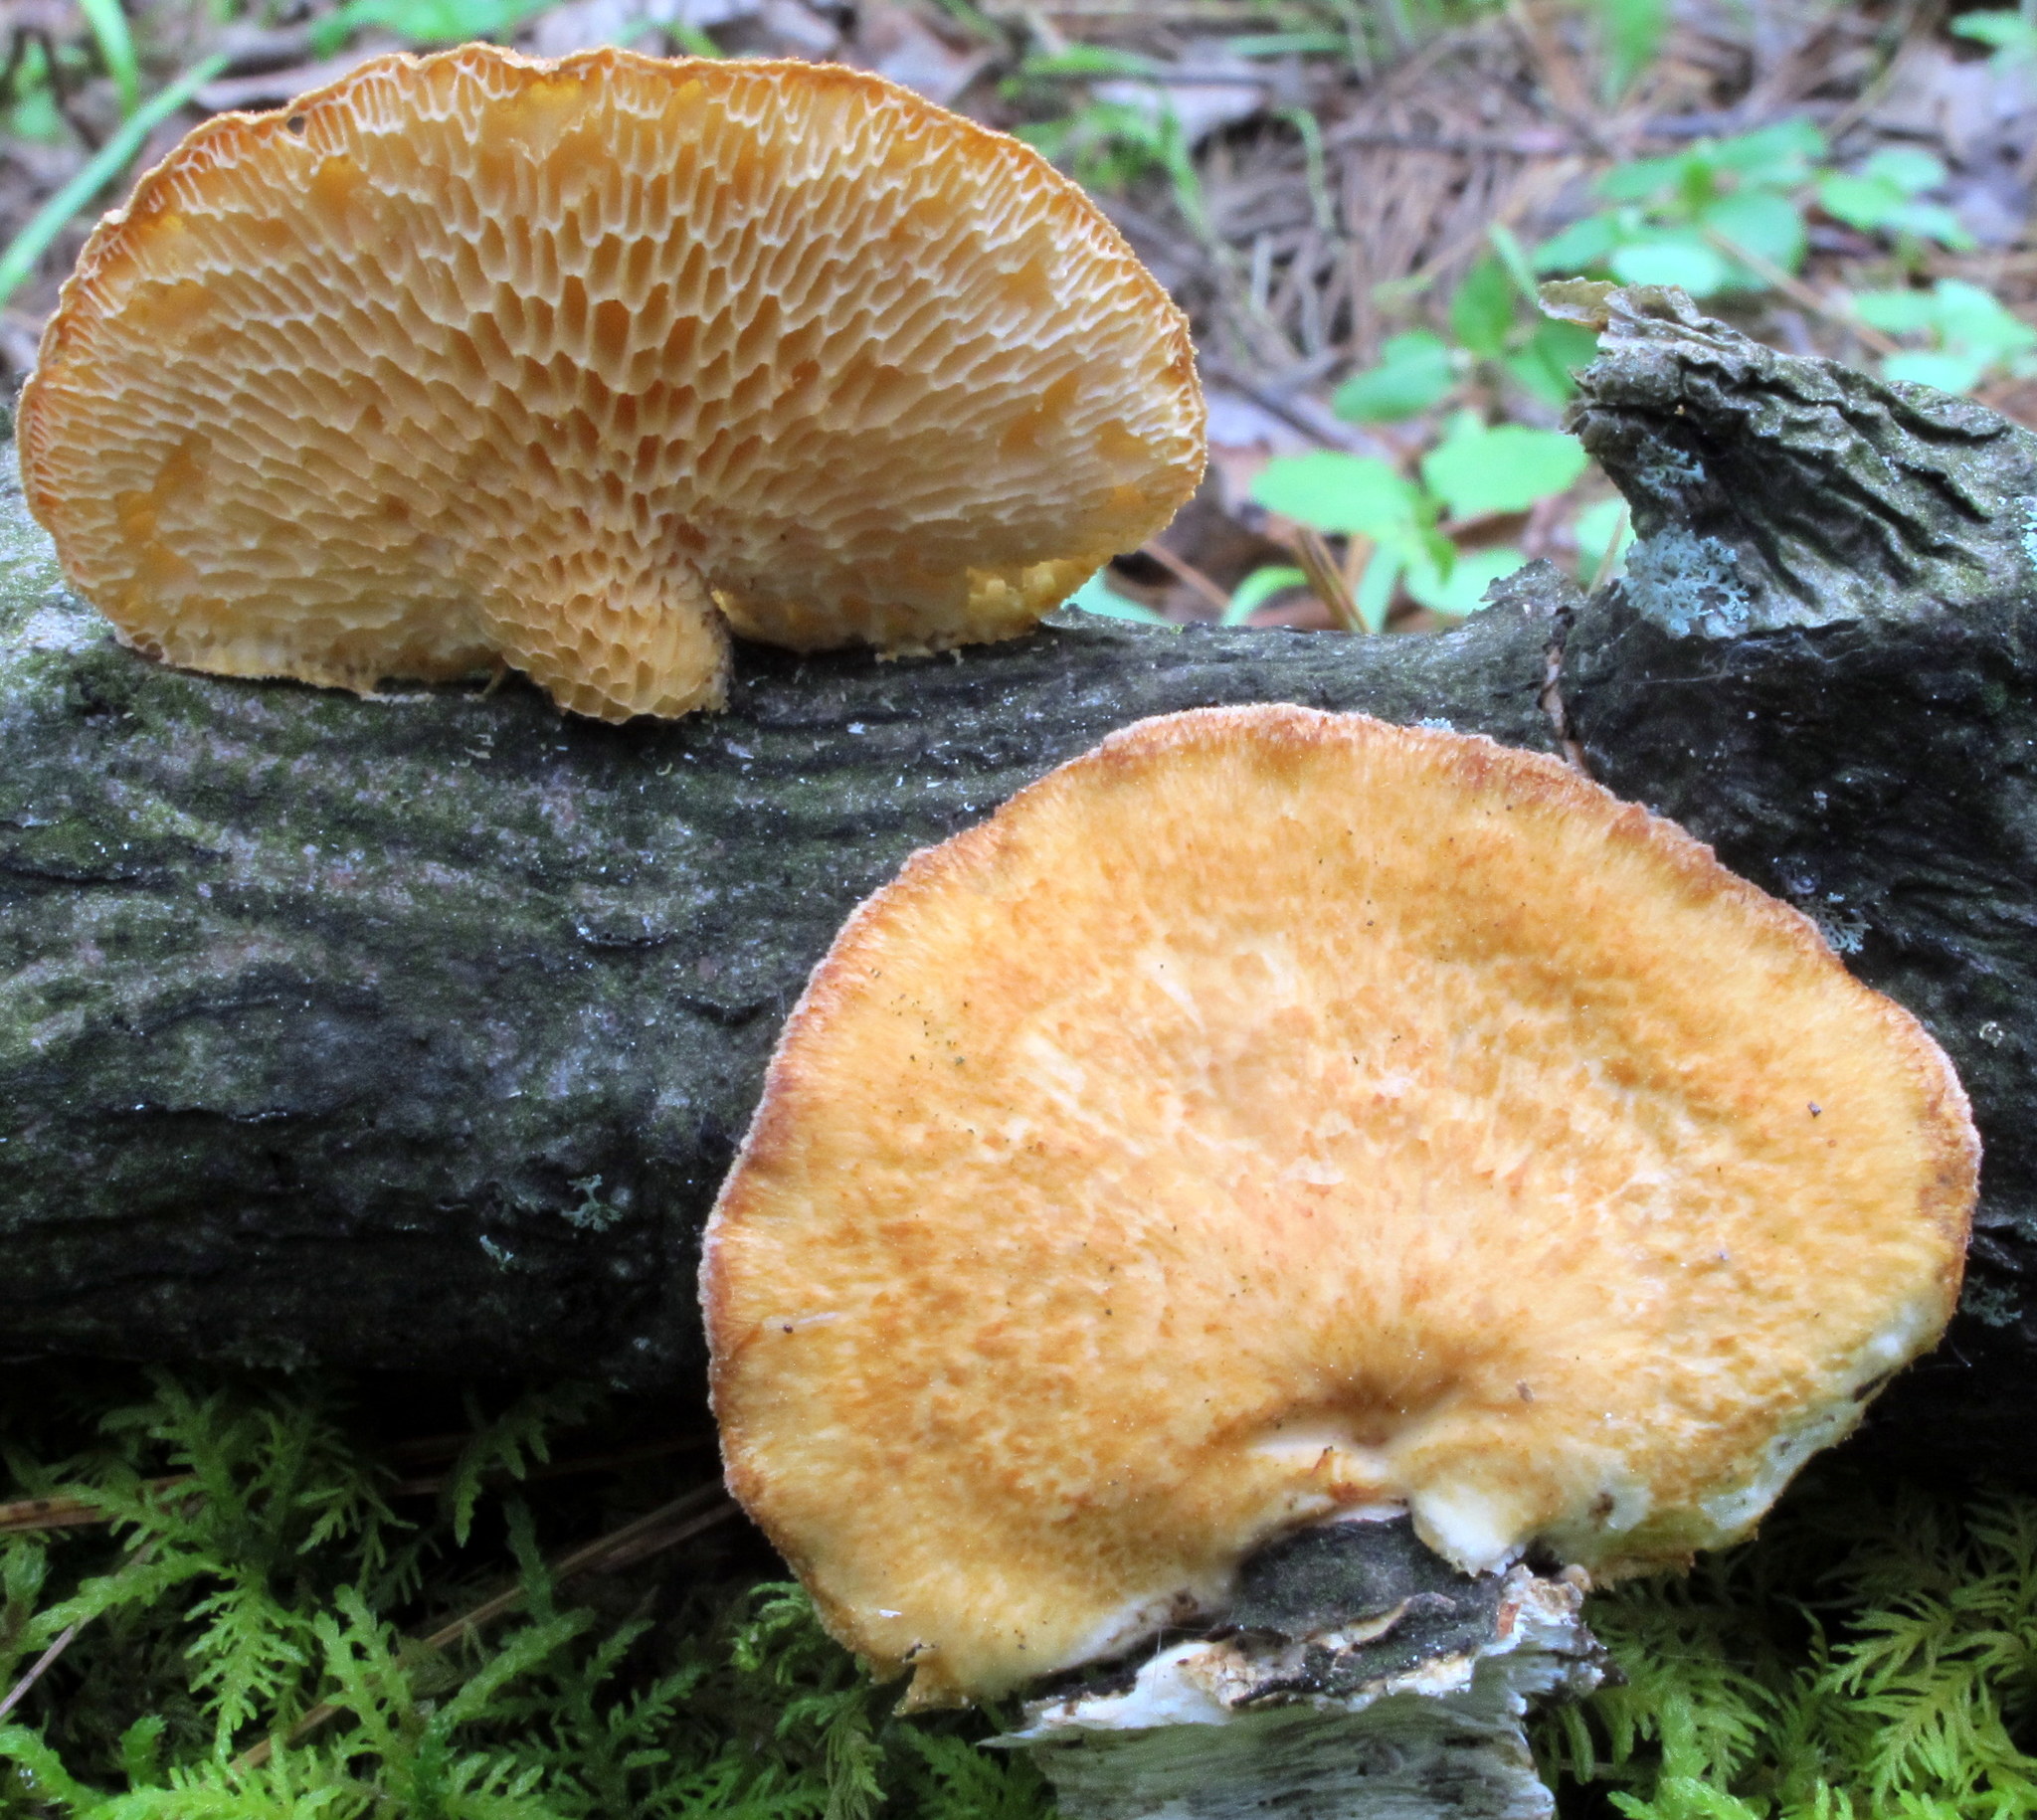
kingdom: Fungi
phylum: Basidiomycota
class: Agaricomycetes
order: Polyporales
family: Polyporaceae
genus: Neofavolus
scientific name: Neofavolus alveolaris
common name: Hexagonal-pored polypore
